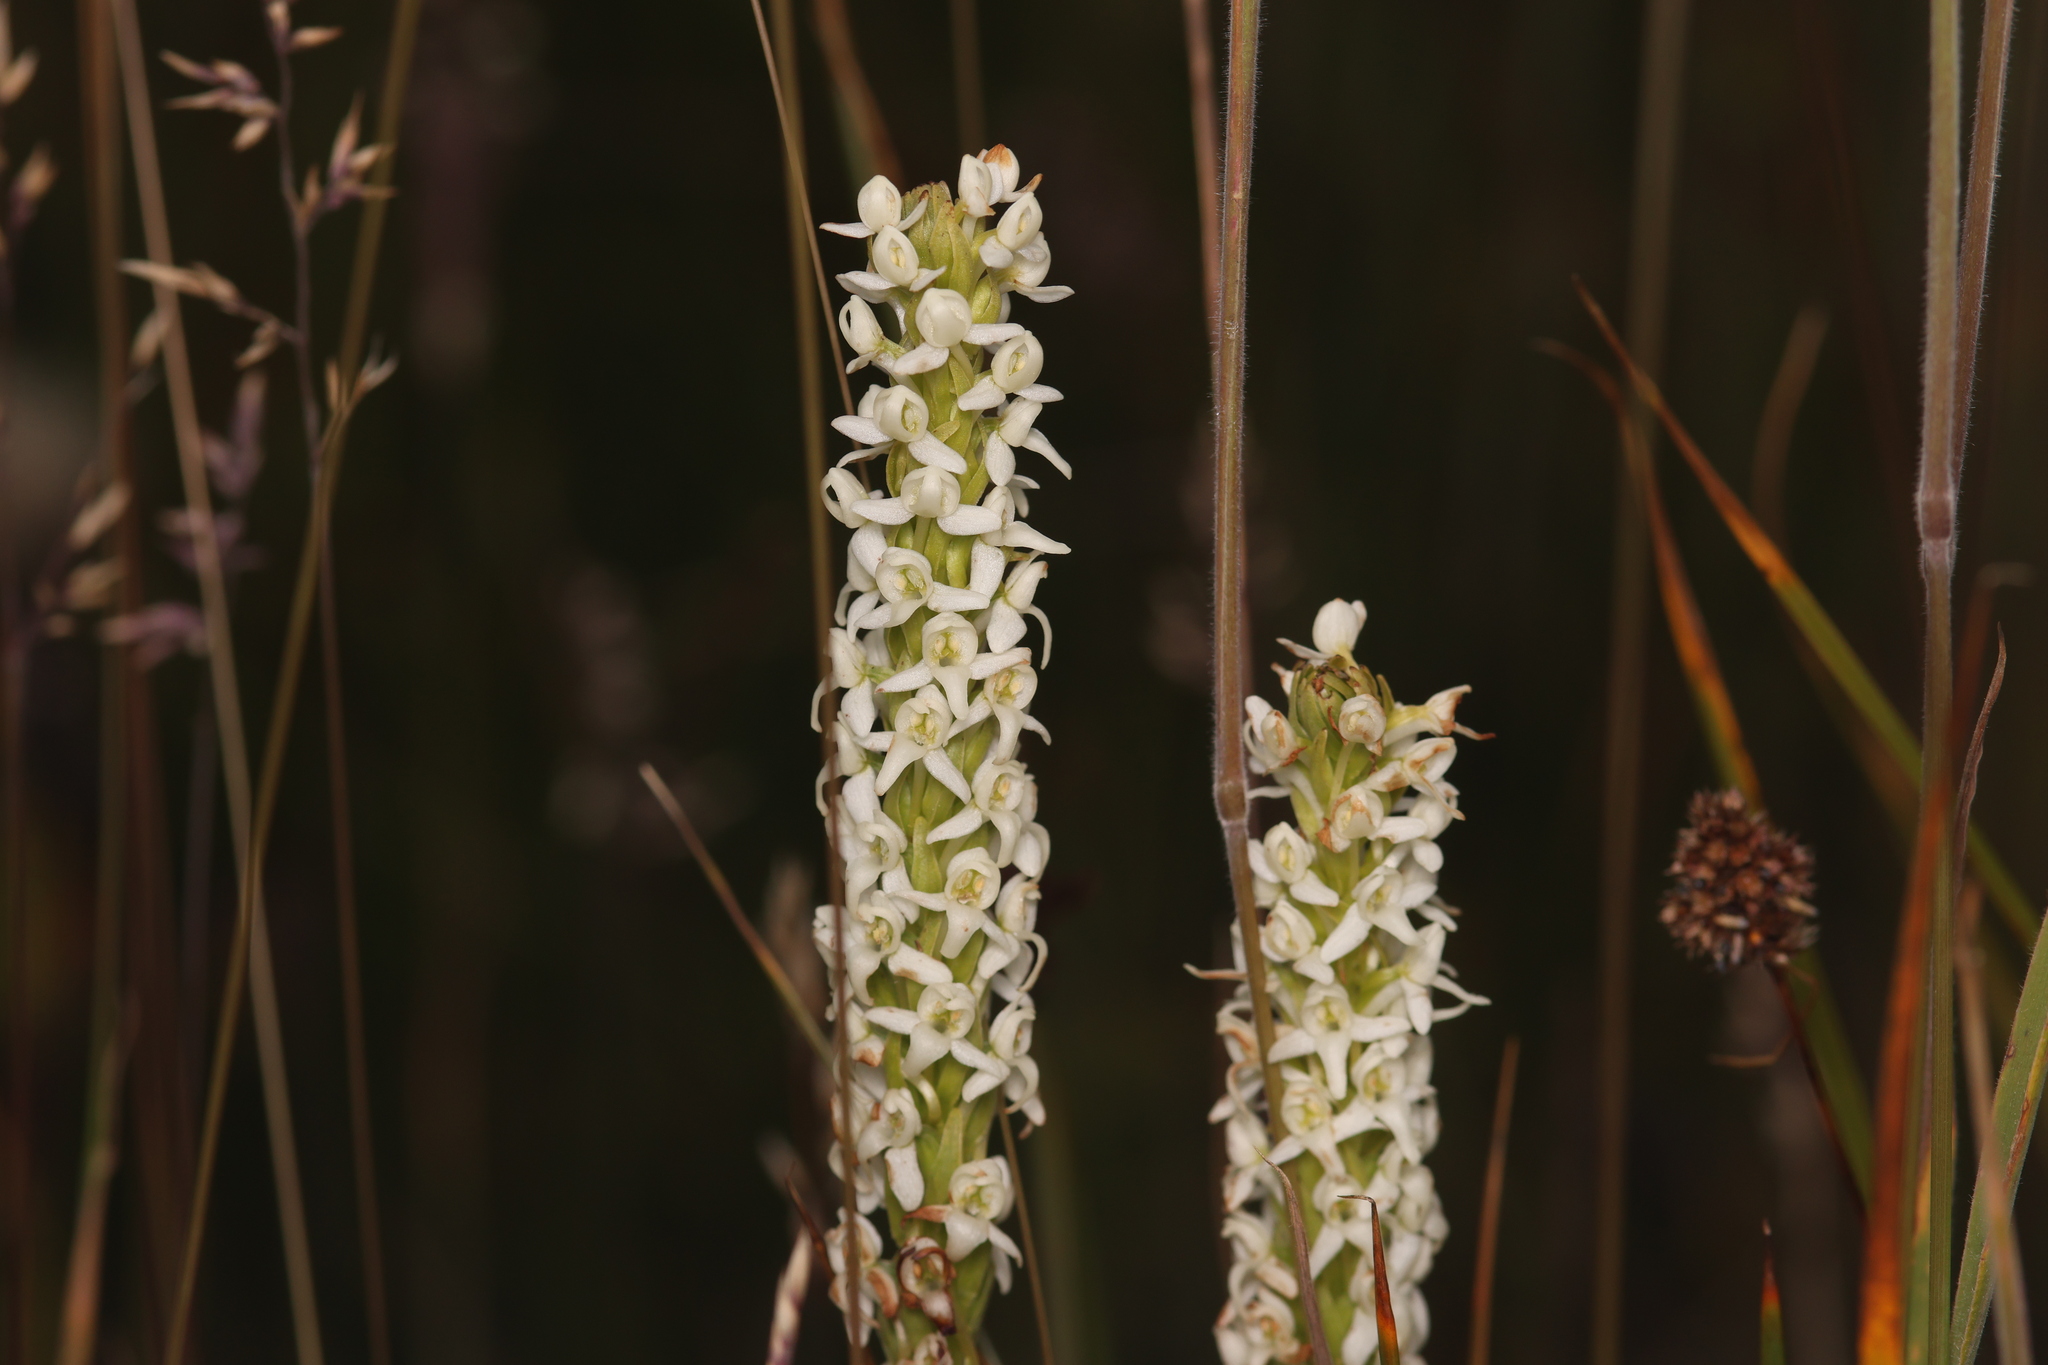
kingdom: Plantae
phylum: Tracheophyta
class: Liliopsida
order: Asparagales
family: Orchidaceae
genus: Platanthera
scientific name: Platanthera dilatata
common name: Bog candles
